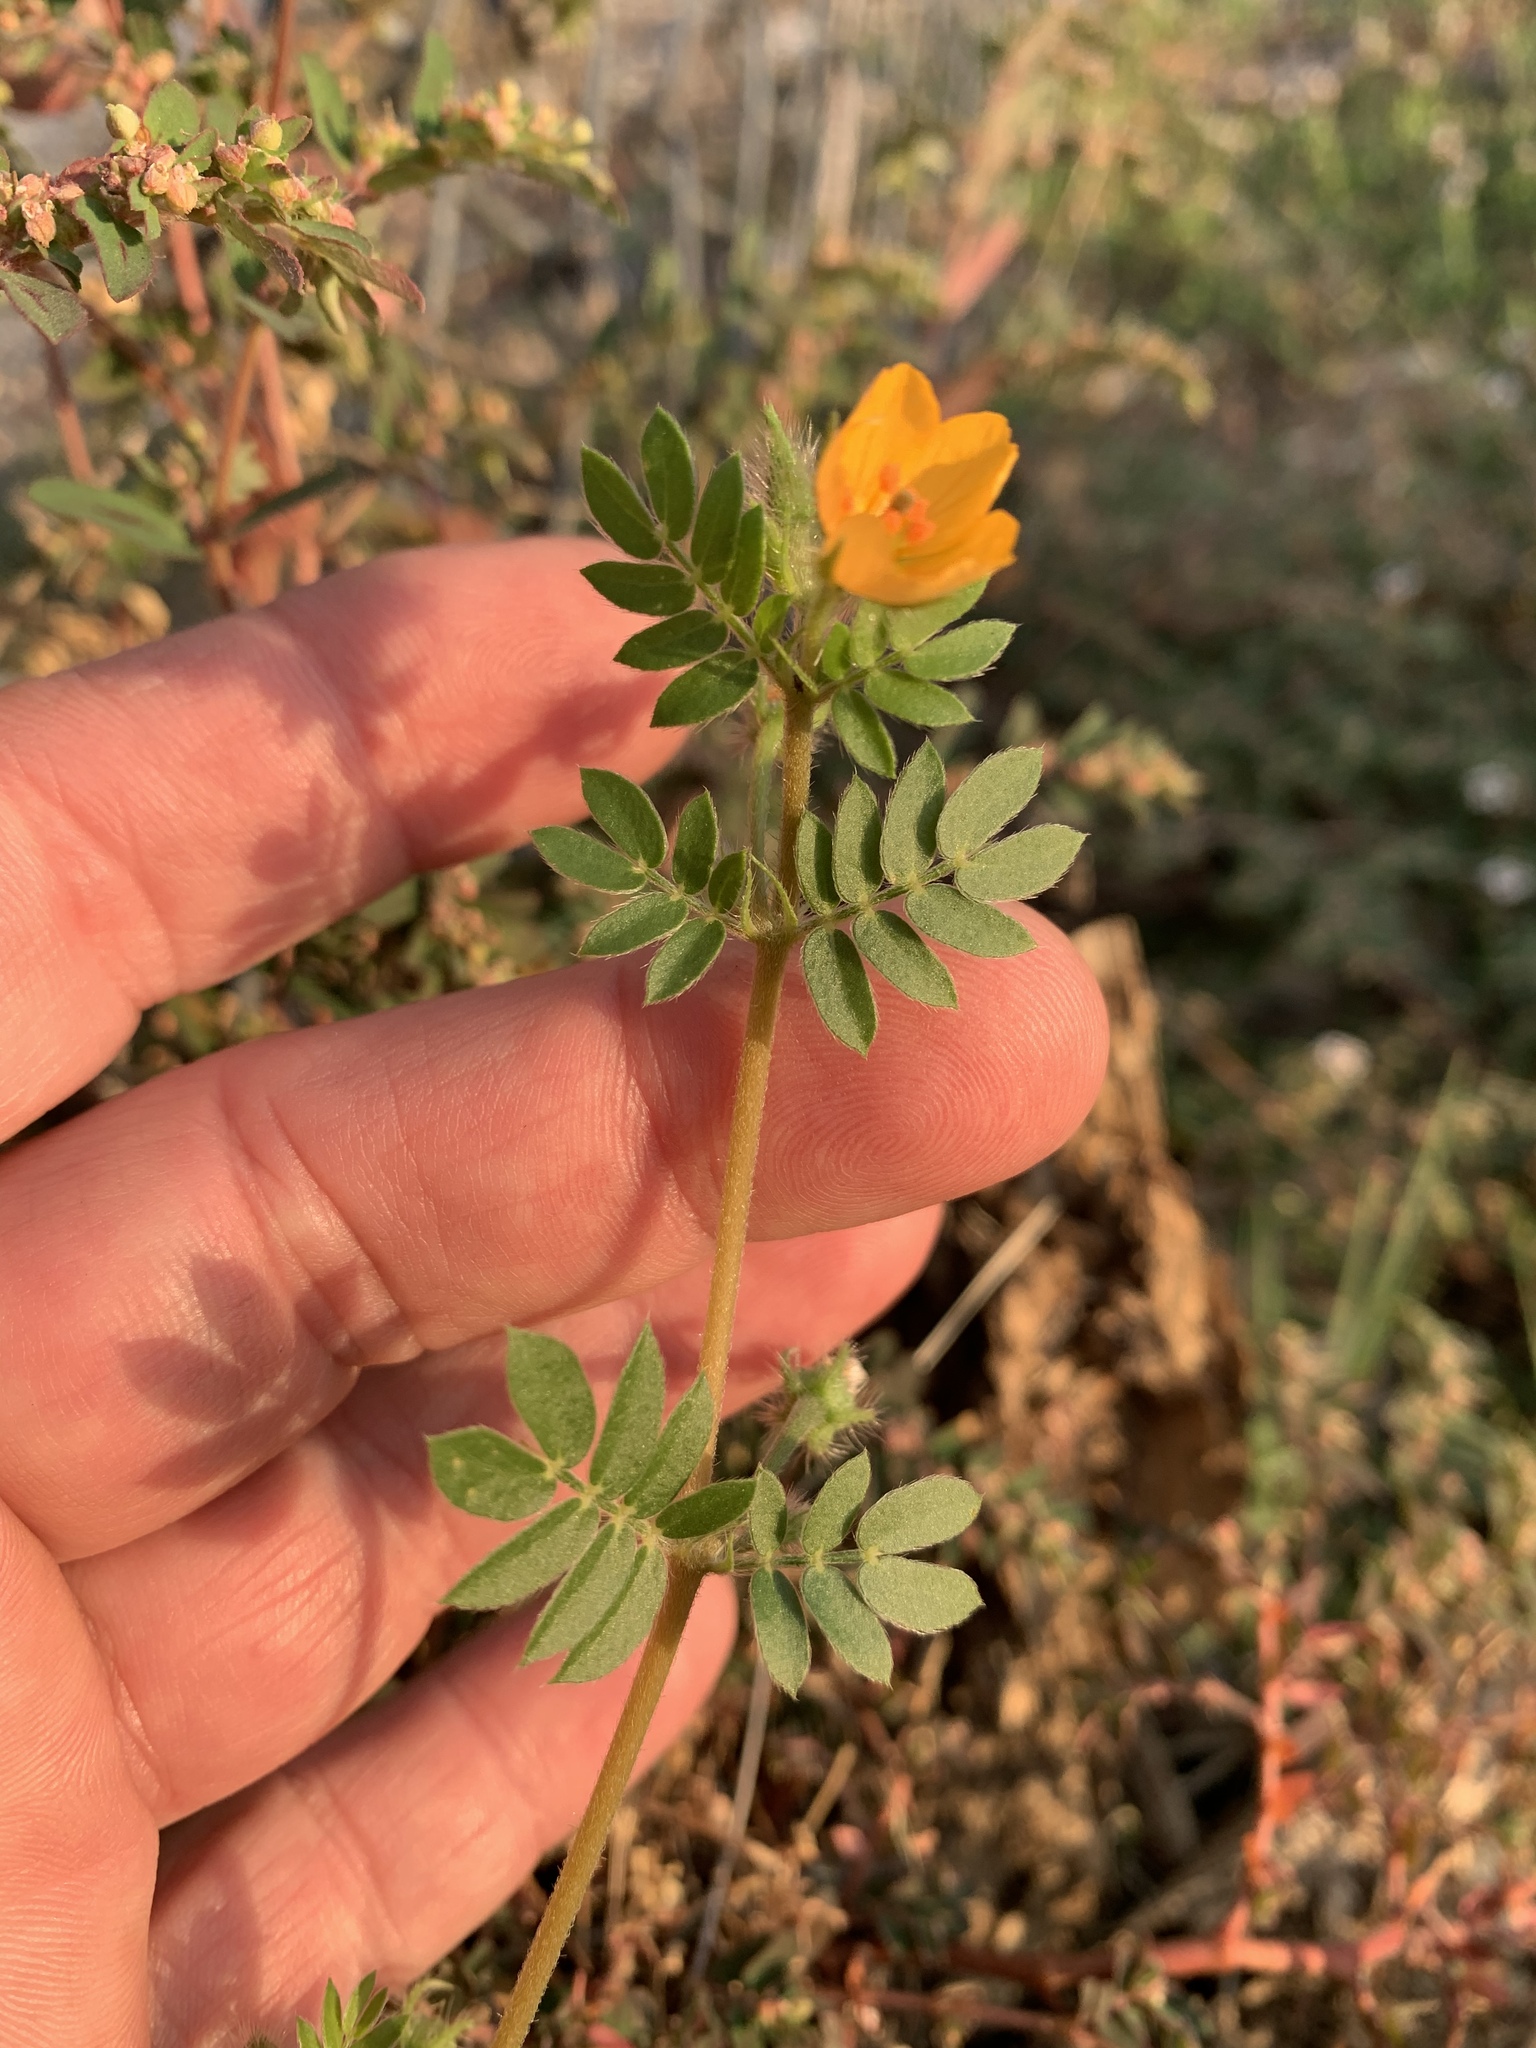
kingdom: Plantae
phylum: Tracheophyta
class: Magnoliopsida
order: Zygophyllales
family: Zygophyllaceae
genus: Kallstroemia
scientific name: Kallstroemia parviflora
